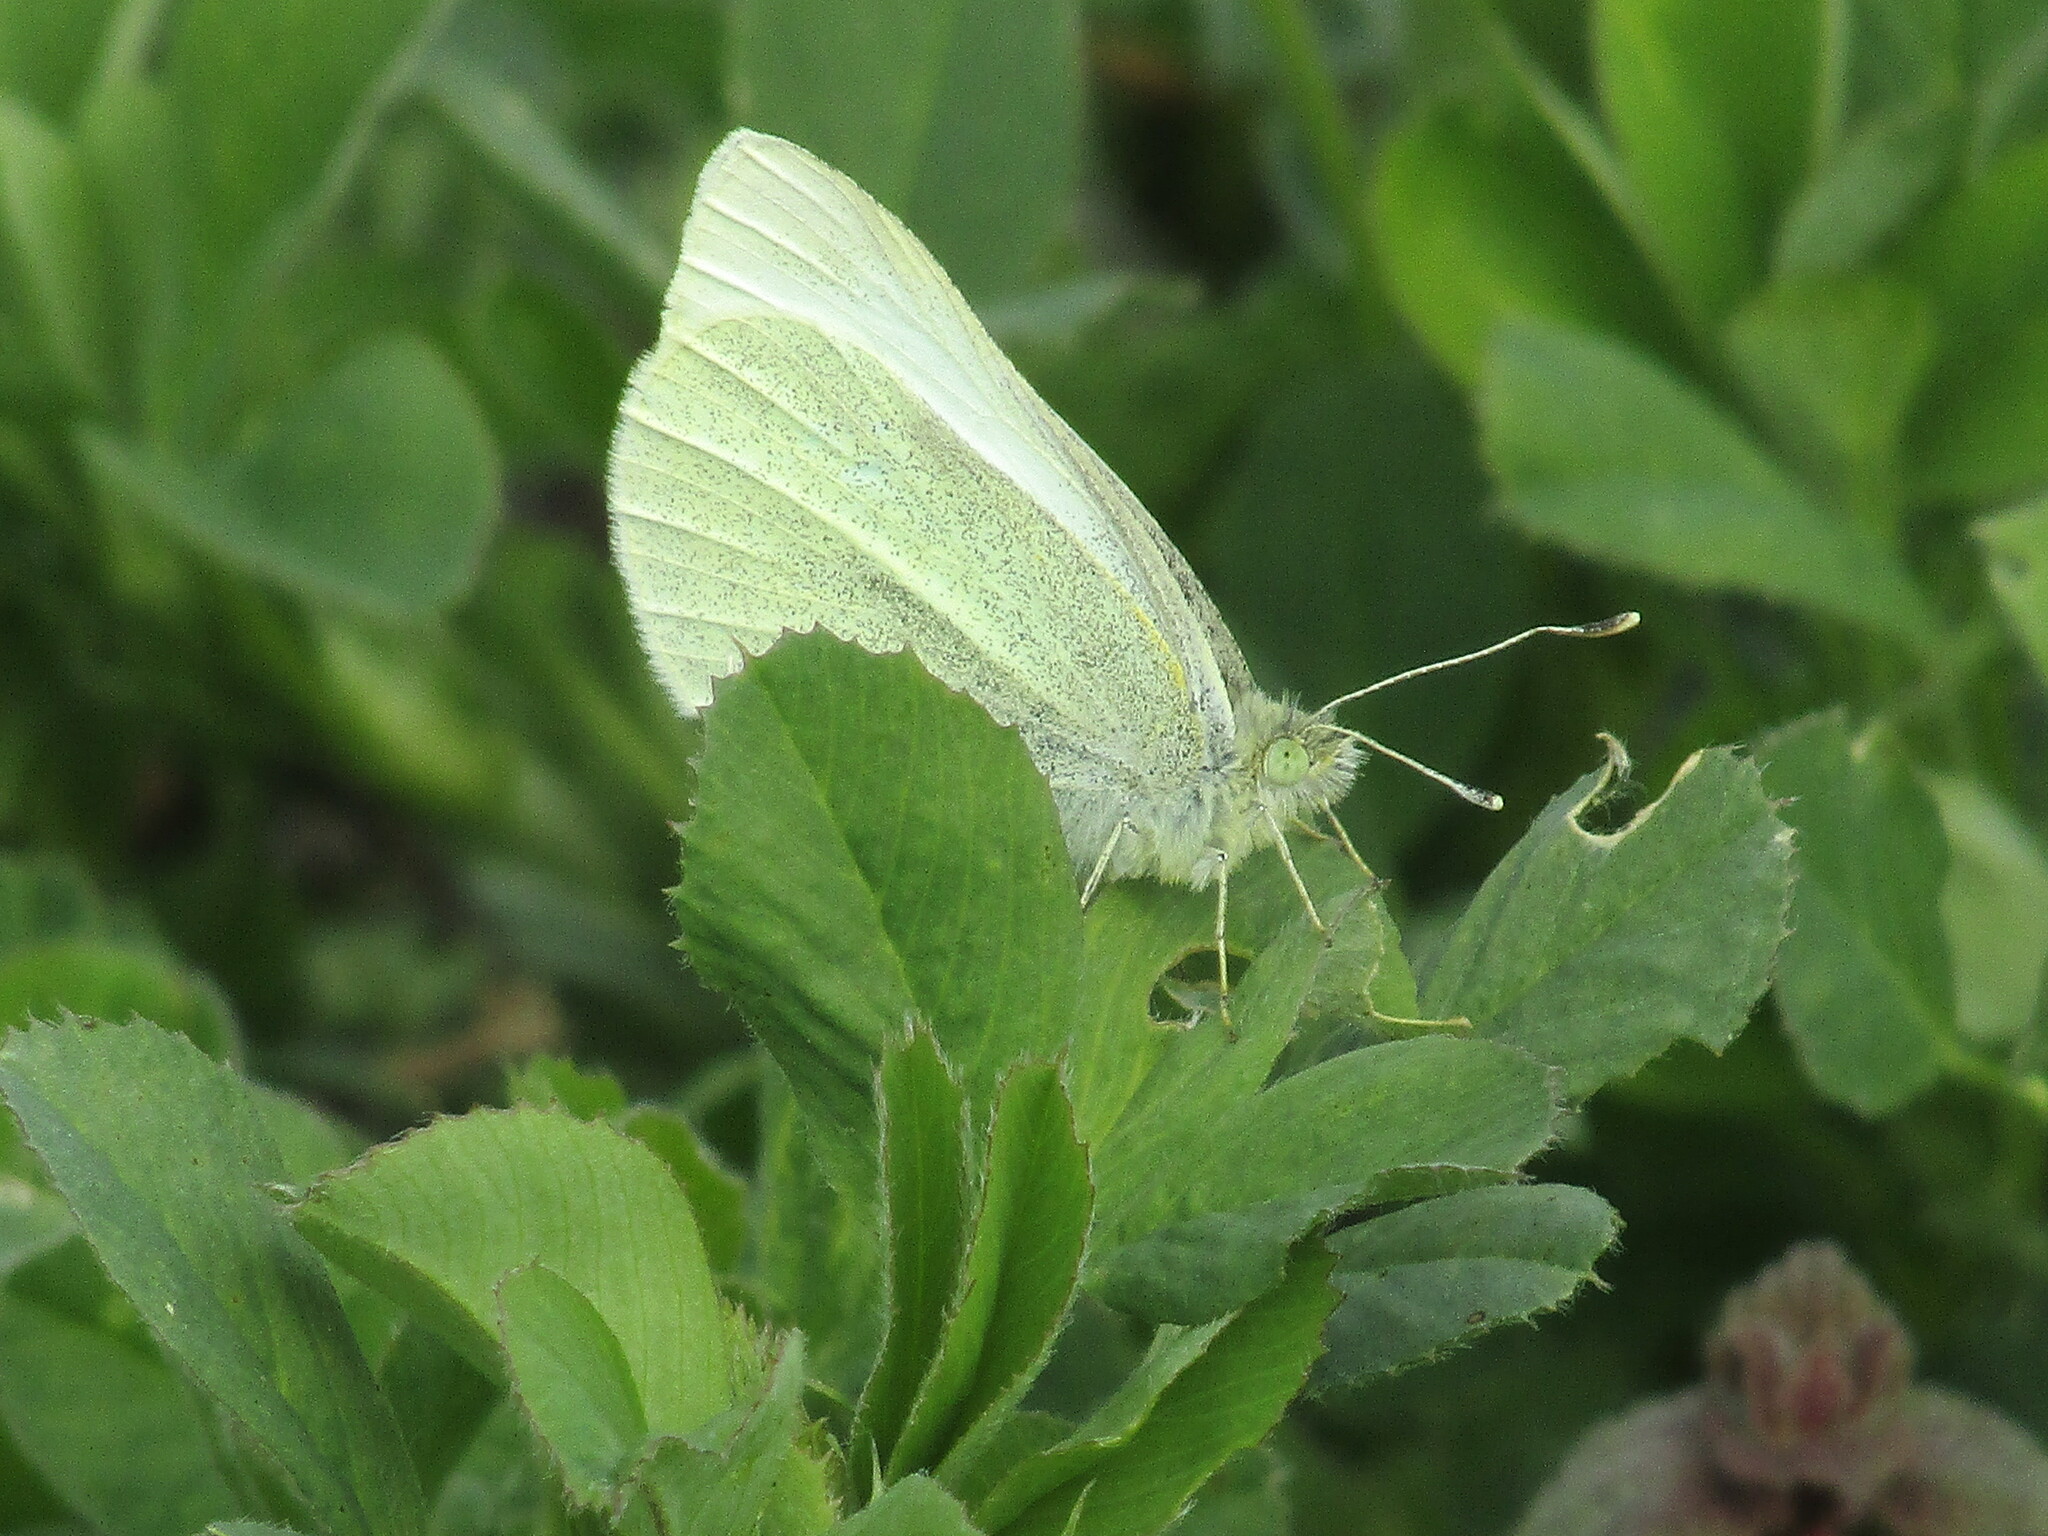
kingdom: Animalia
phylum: Arthropoda
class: Insecta
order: Lepidoptera
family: Pieridae
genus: Pieris
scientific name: Pieris rapae
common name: Small white
